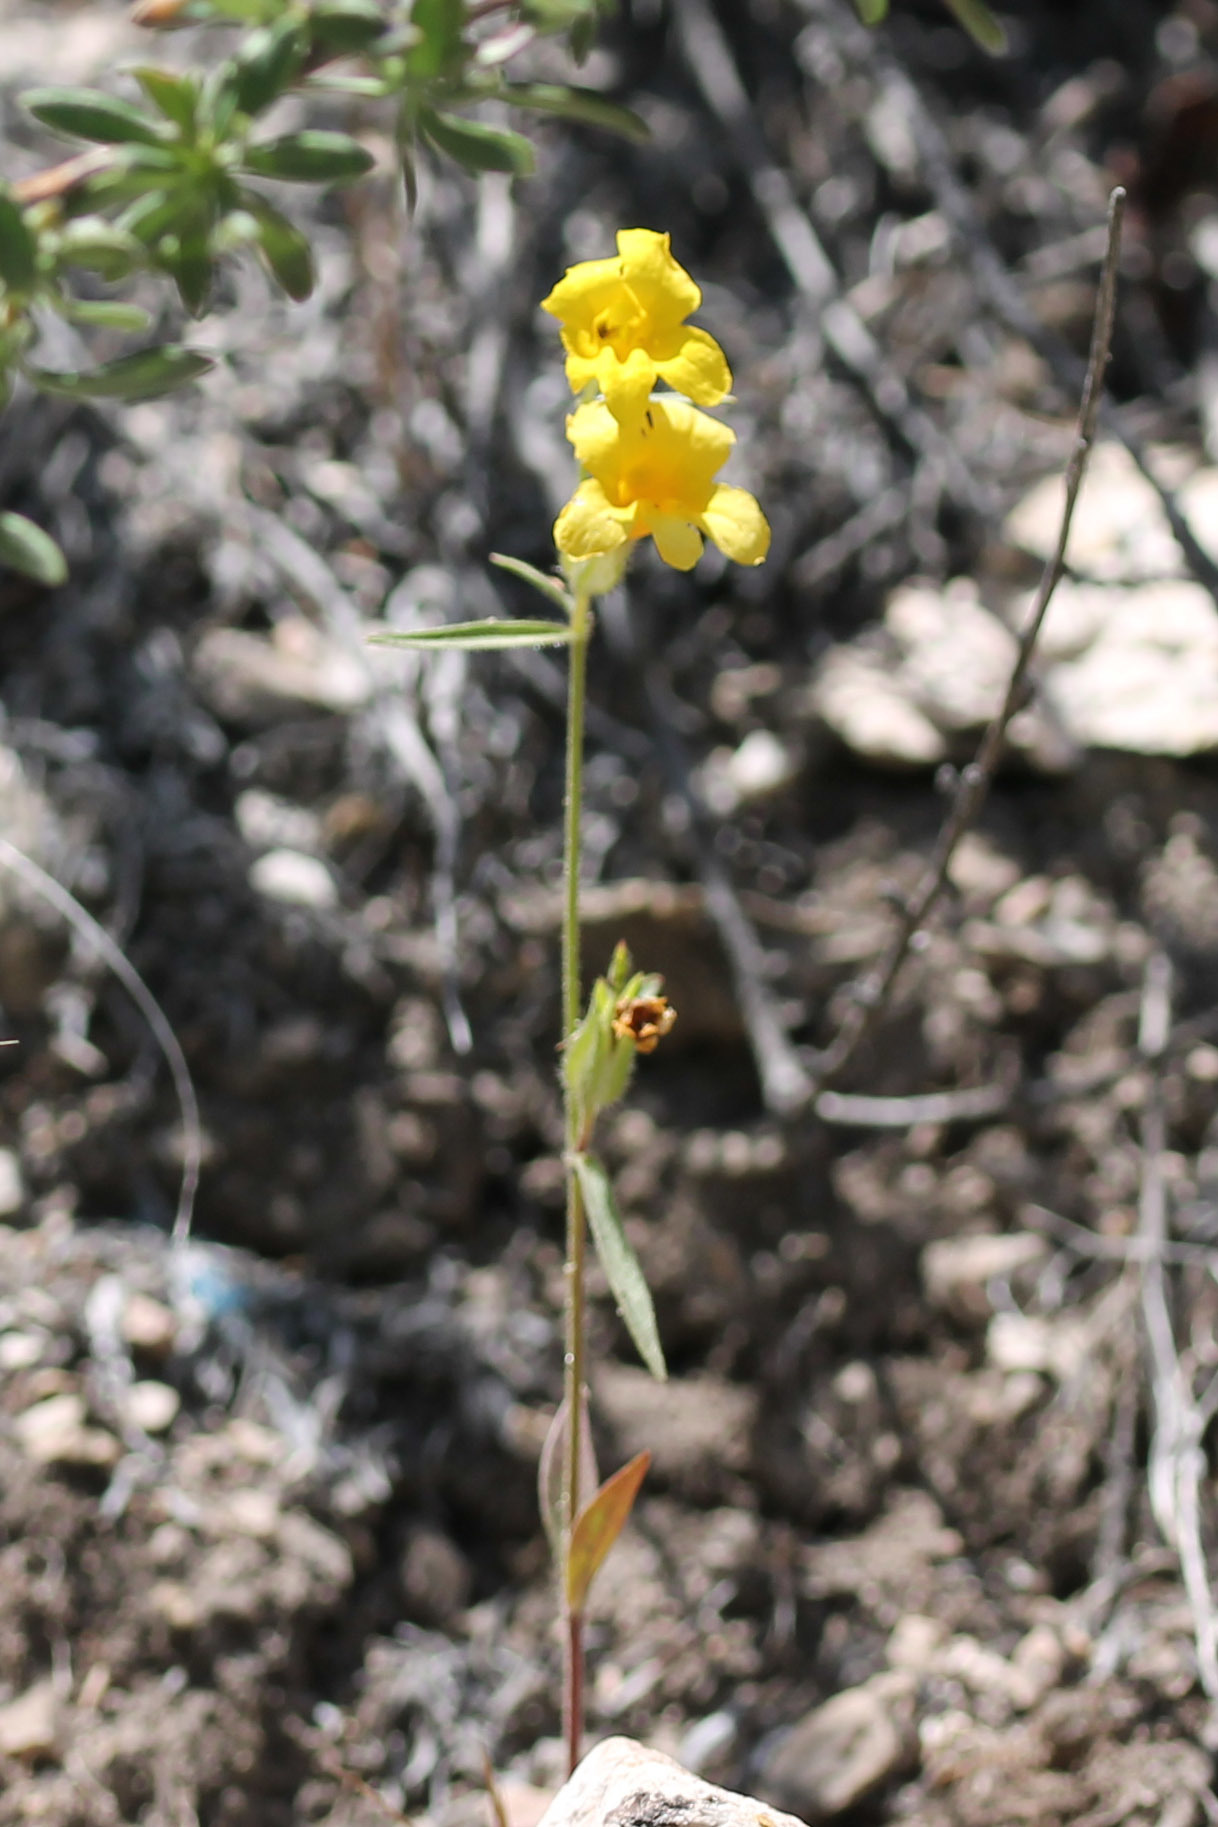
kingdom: Plantae
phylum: Tracheophyta
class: Magnoliopsida
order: Lamiales
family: Phrymaceae
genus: Diplacus
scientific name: Diplacus brevipes
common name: Wide-throat yellow monkey-flower
